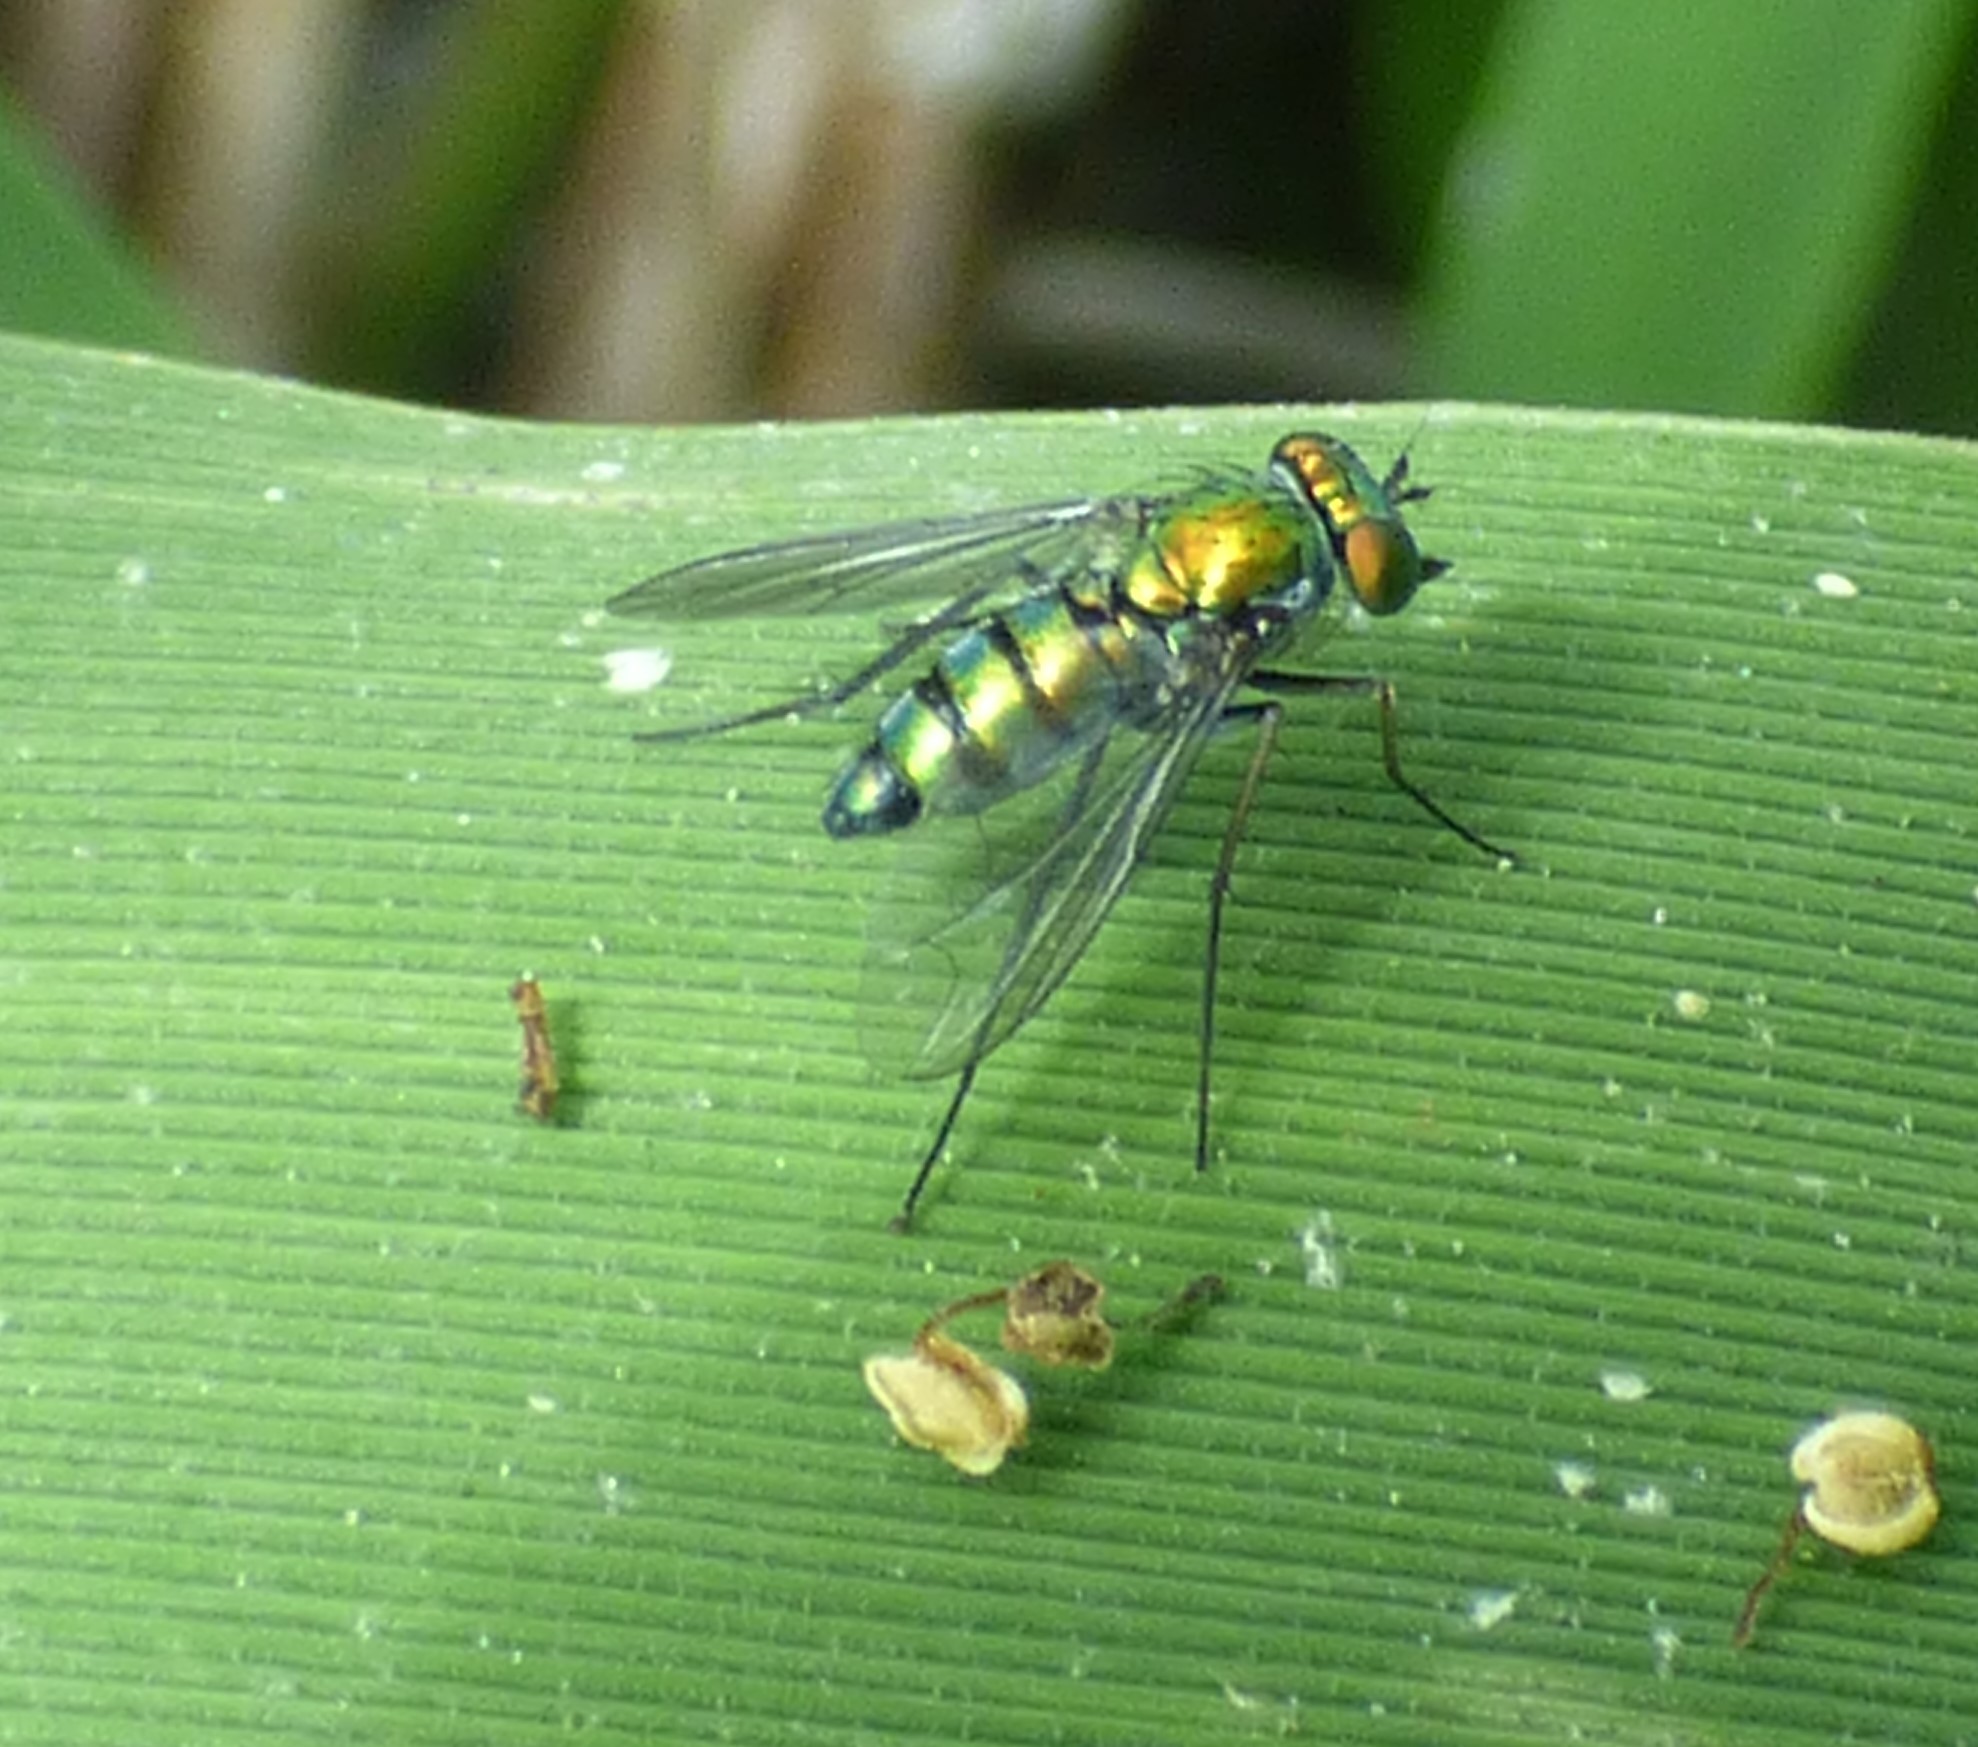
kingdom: Animalia
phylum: Arthropoda
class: Insecta
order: Diptera
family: Dolichopodidae
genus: Condylostylus
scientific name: Condylostylus longicornis
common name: Long-legged fly
